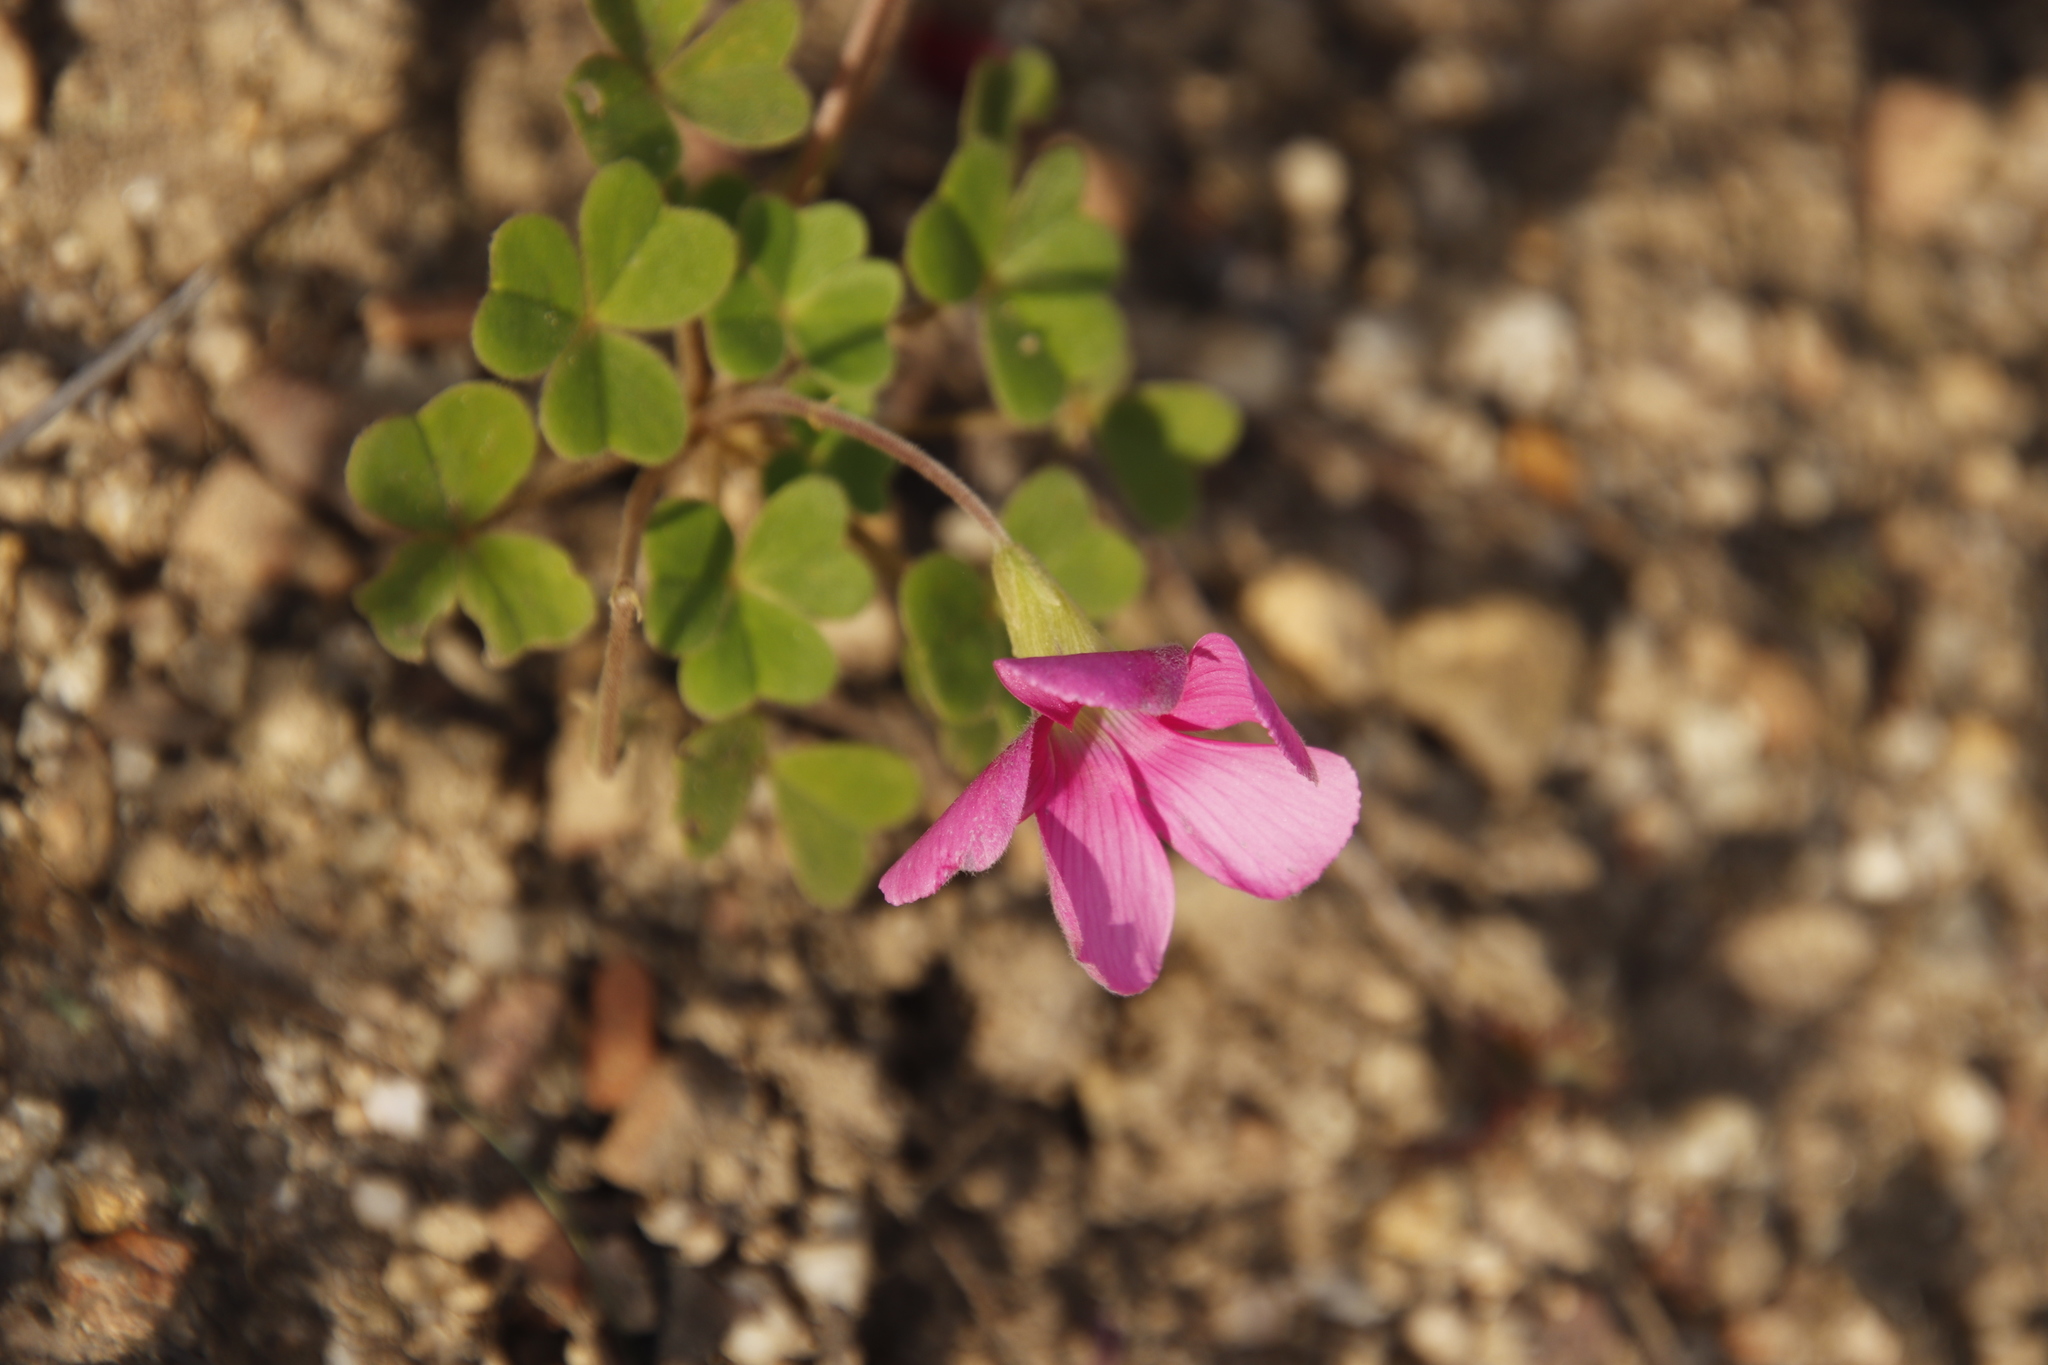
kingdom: Plantae
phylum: Tracheophyta
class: Magnoliopsida
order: Oxalidales
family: Oxalidaceae
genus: Oxalis
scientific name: Oxalis lanata
